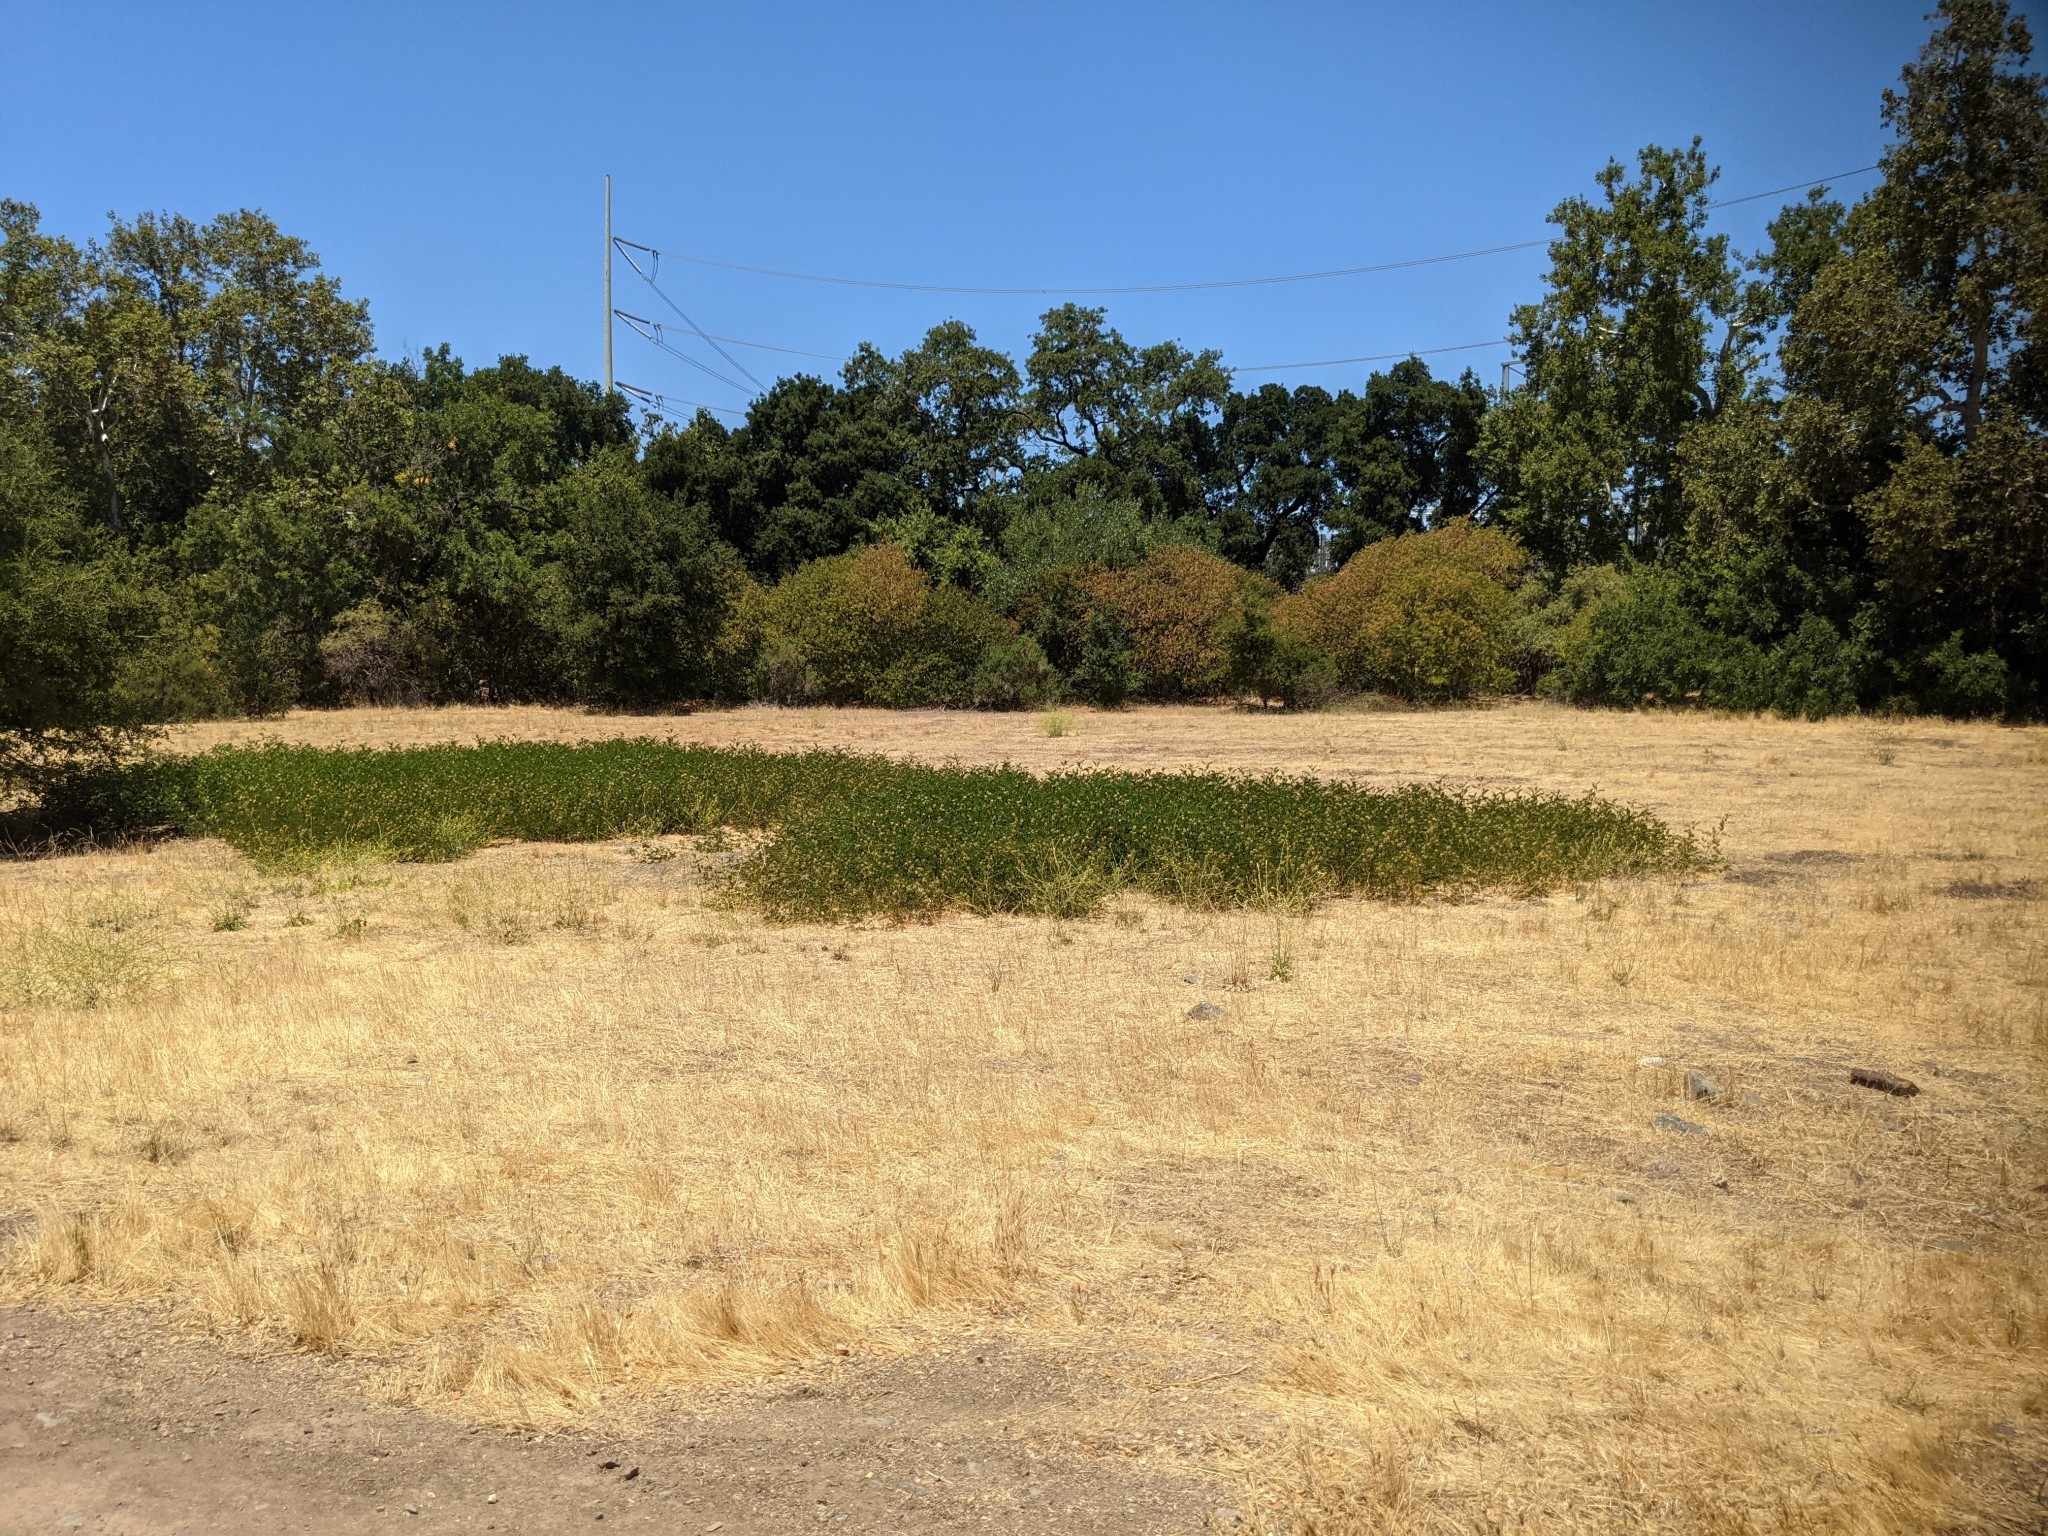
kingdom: Plantae
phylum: Tracheophyta
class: Magnoliopsida
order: Fabales
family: Fabaceae
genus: Glycyrrhiza
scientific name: Glycyrrhiza lepidota
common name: American liquorice
